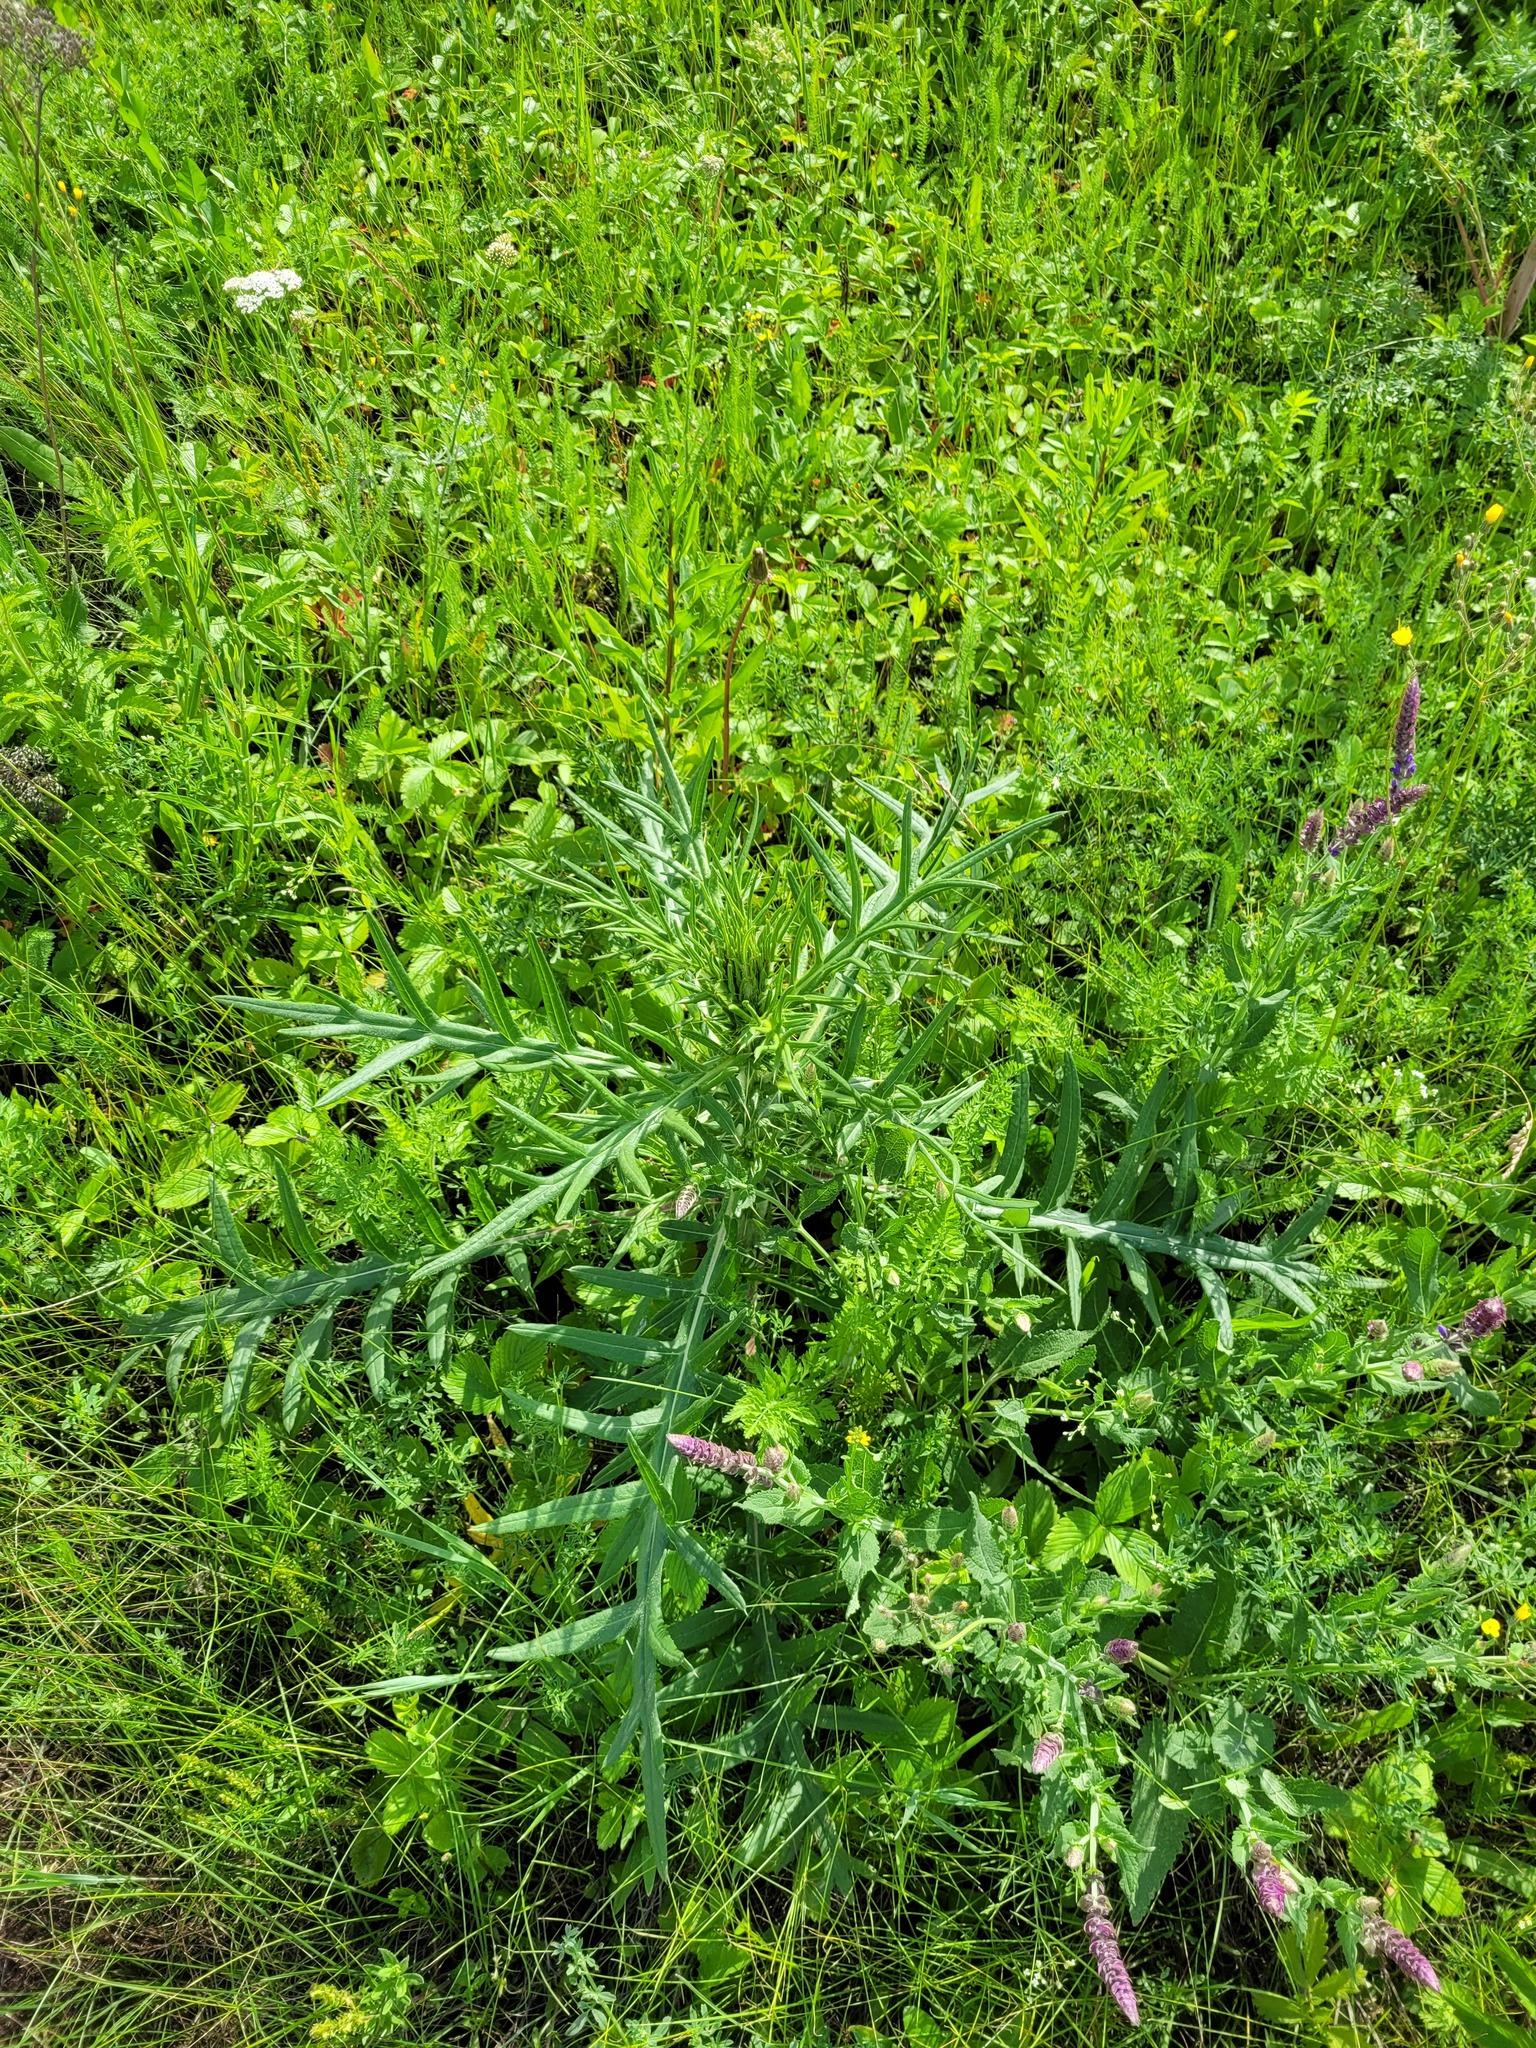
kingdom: Plantae
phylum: Tracheophyta
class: Magnoliopsida
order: Asterales
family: Asteraceae
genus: Cirsium
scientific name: Cirsium serrulatum
